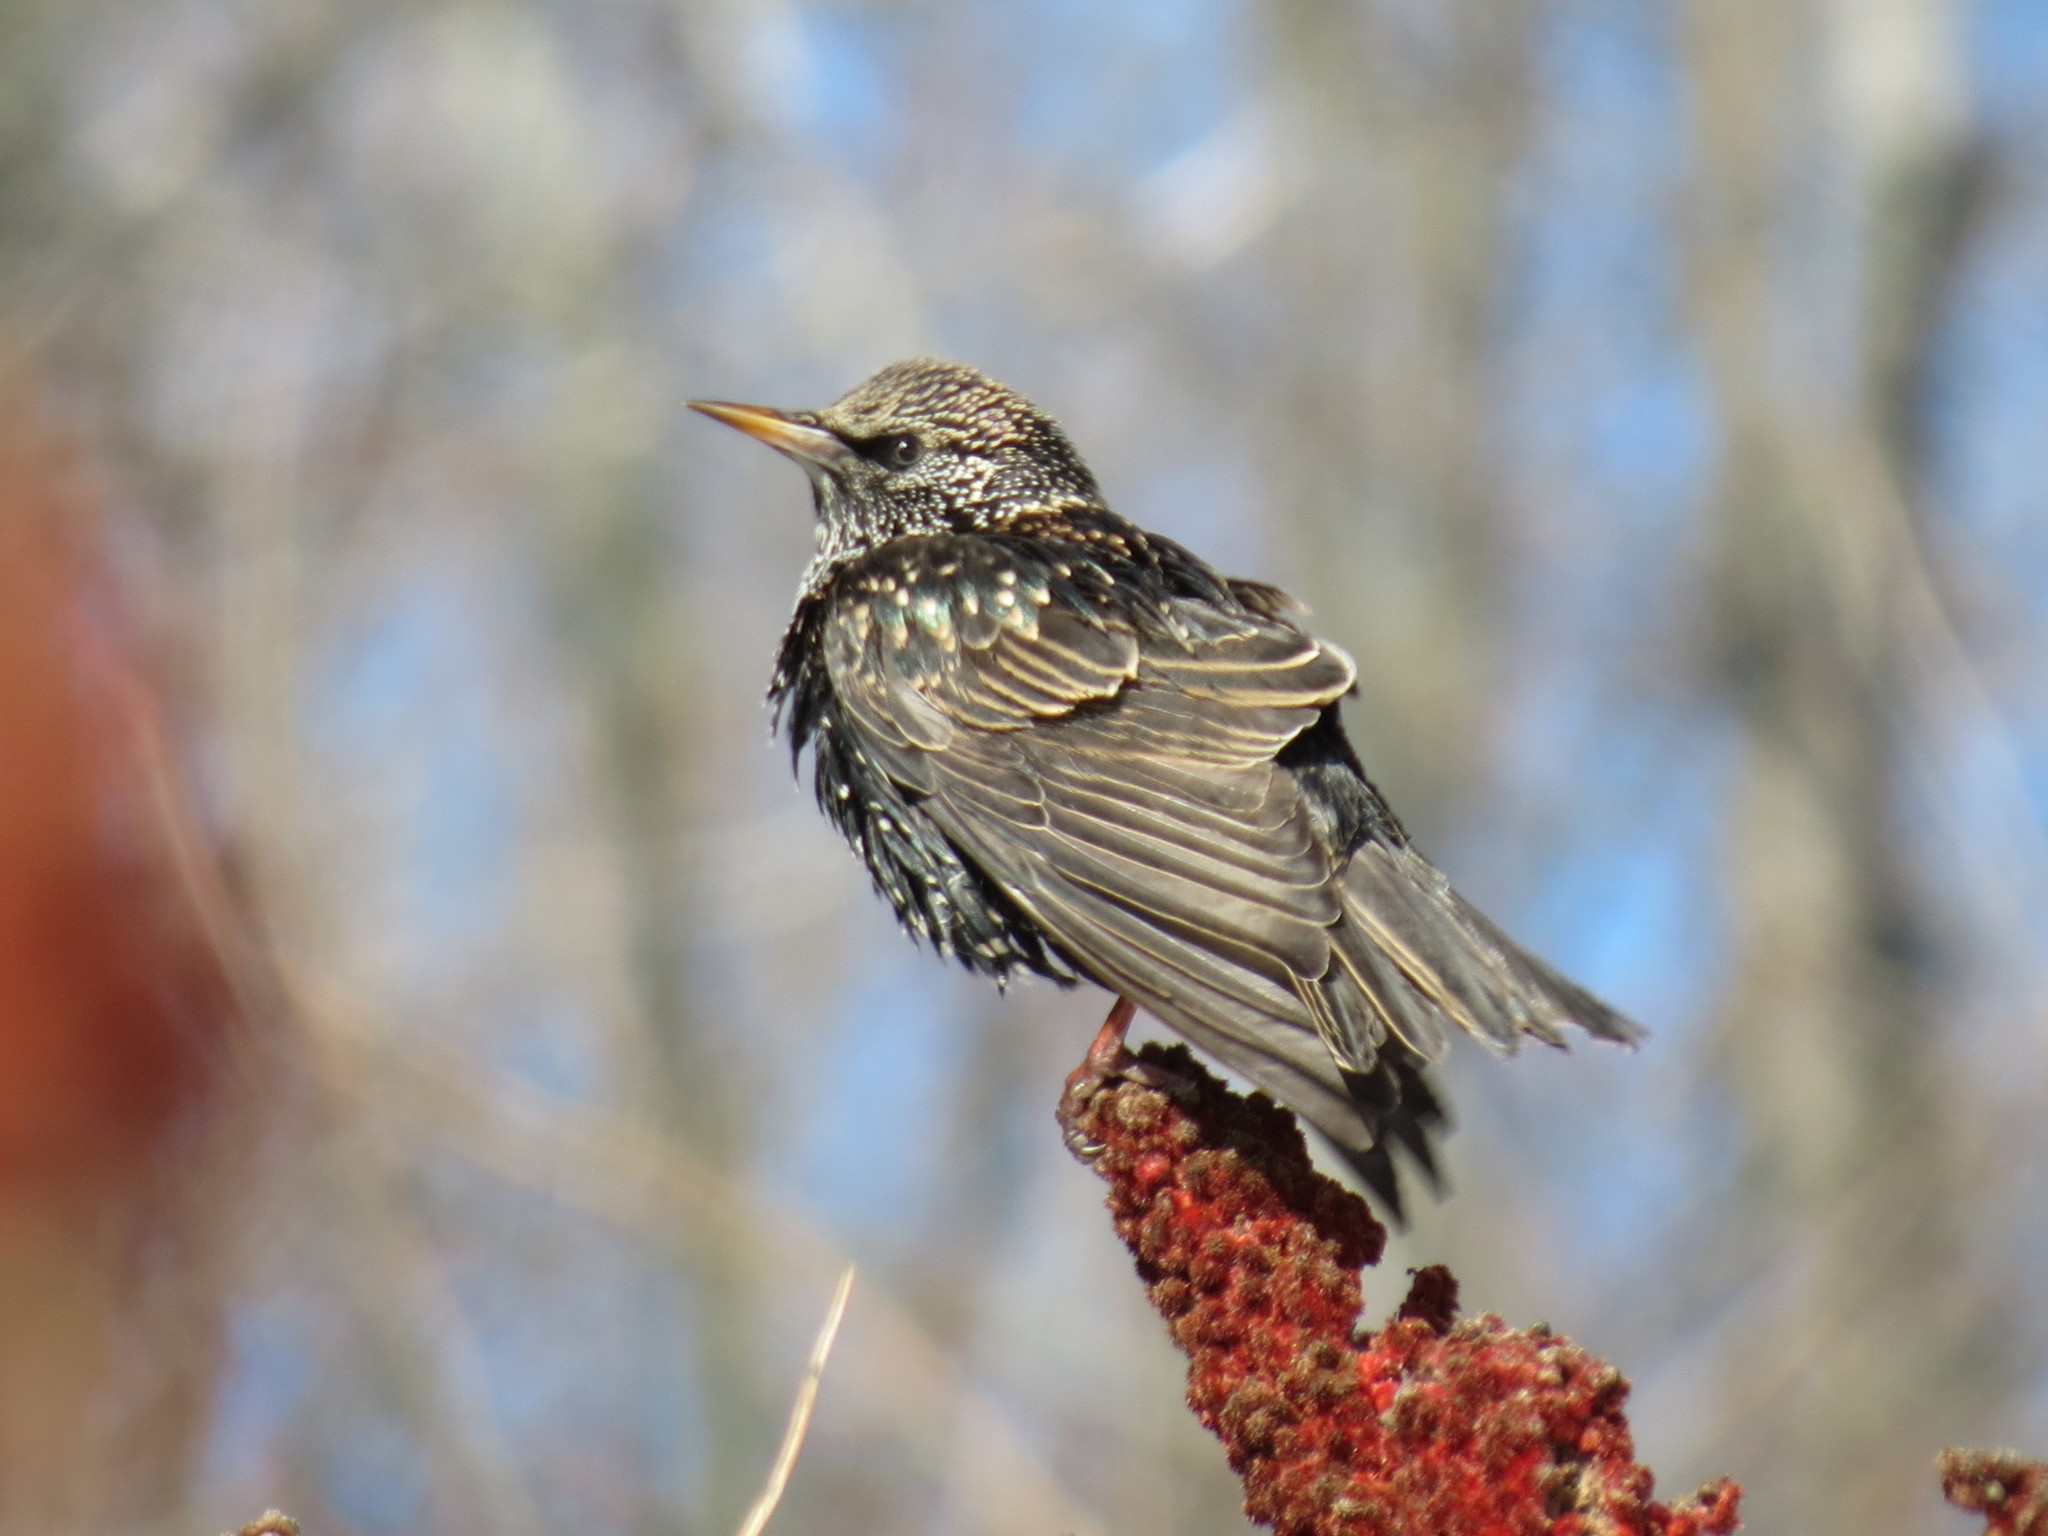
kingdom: Animalia
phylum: Chordata
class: Aves
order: Passeriformes
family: Sturnidae
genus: Sturnus
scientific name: Sturnus vulgaris
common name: Common starling
